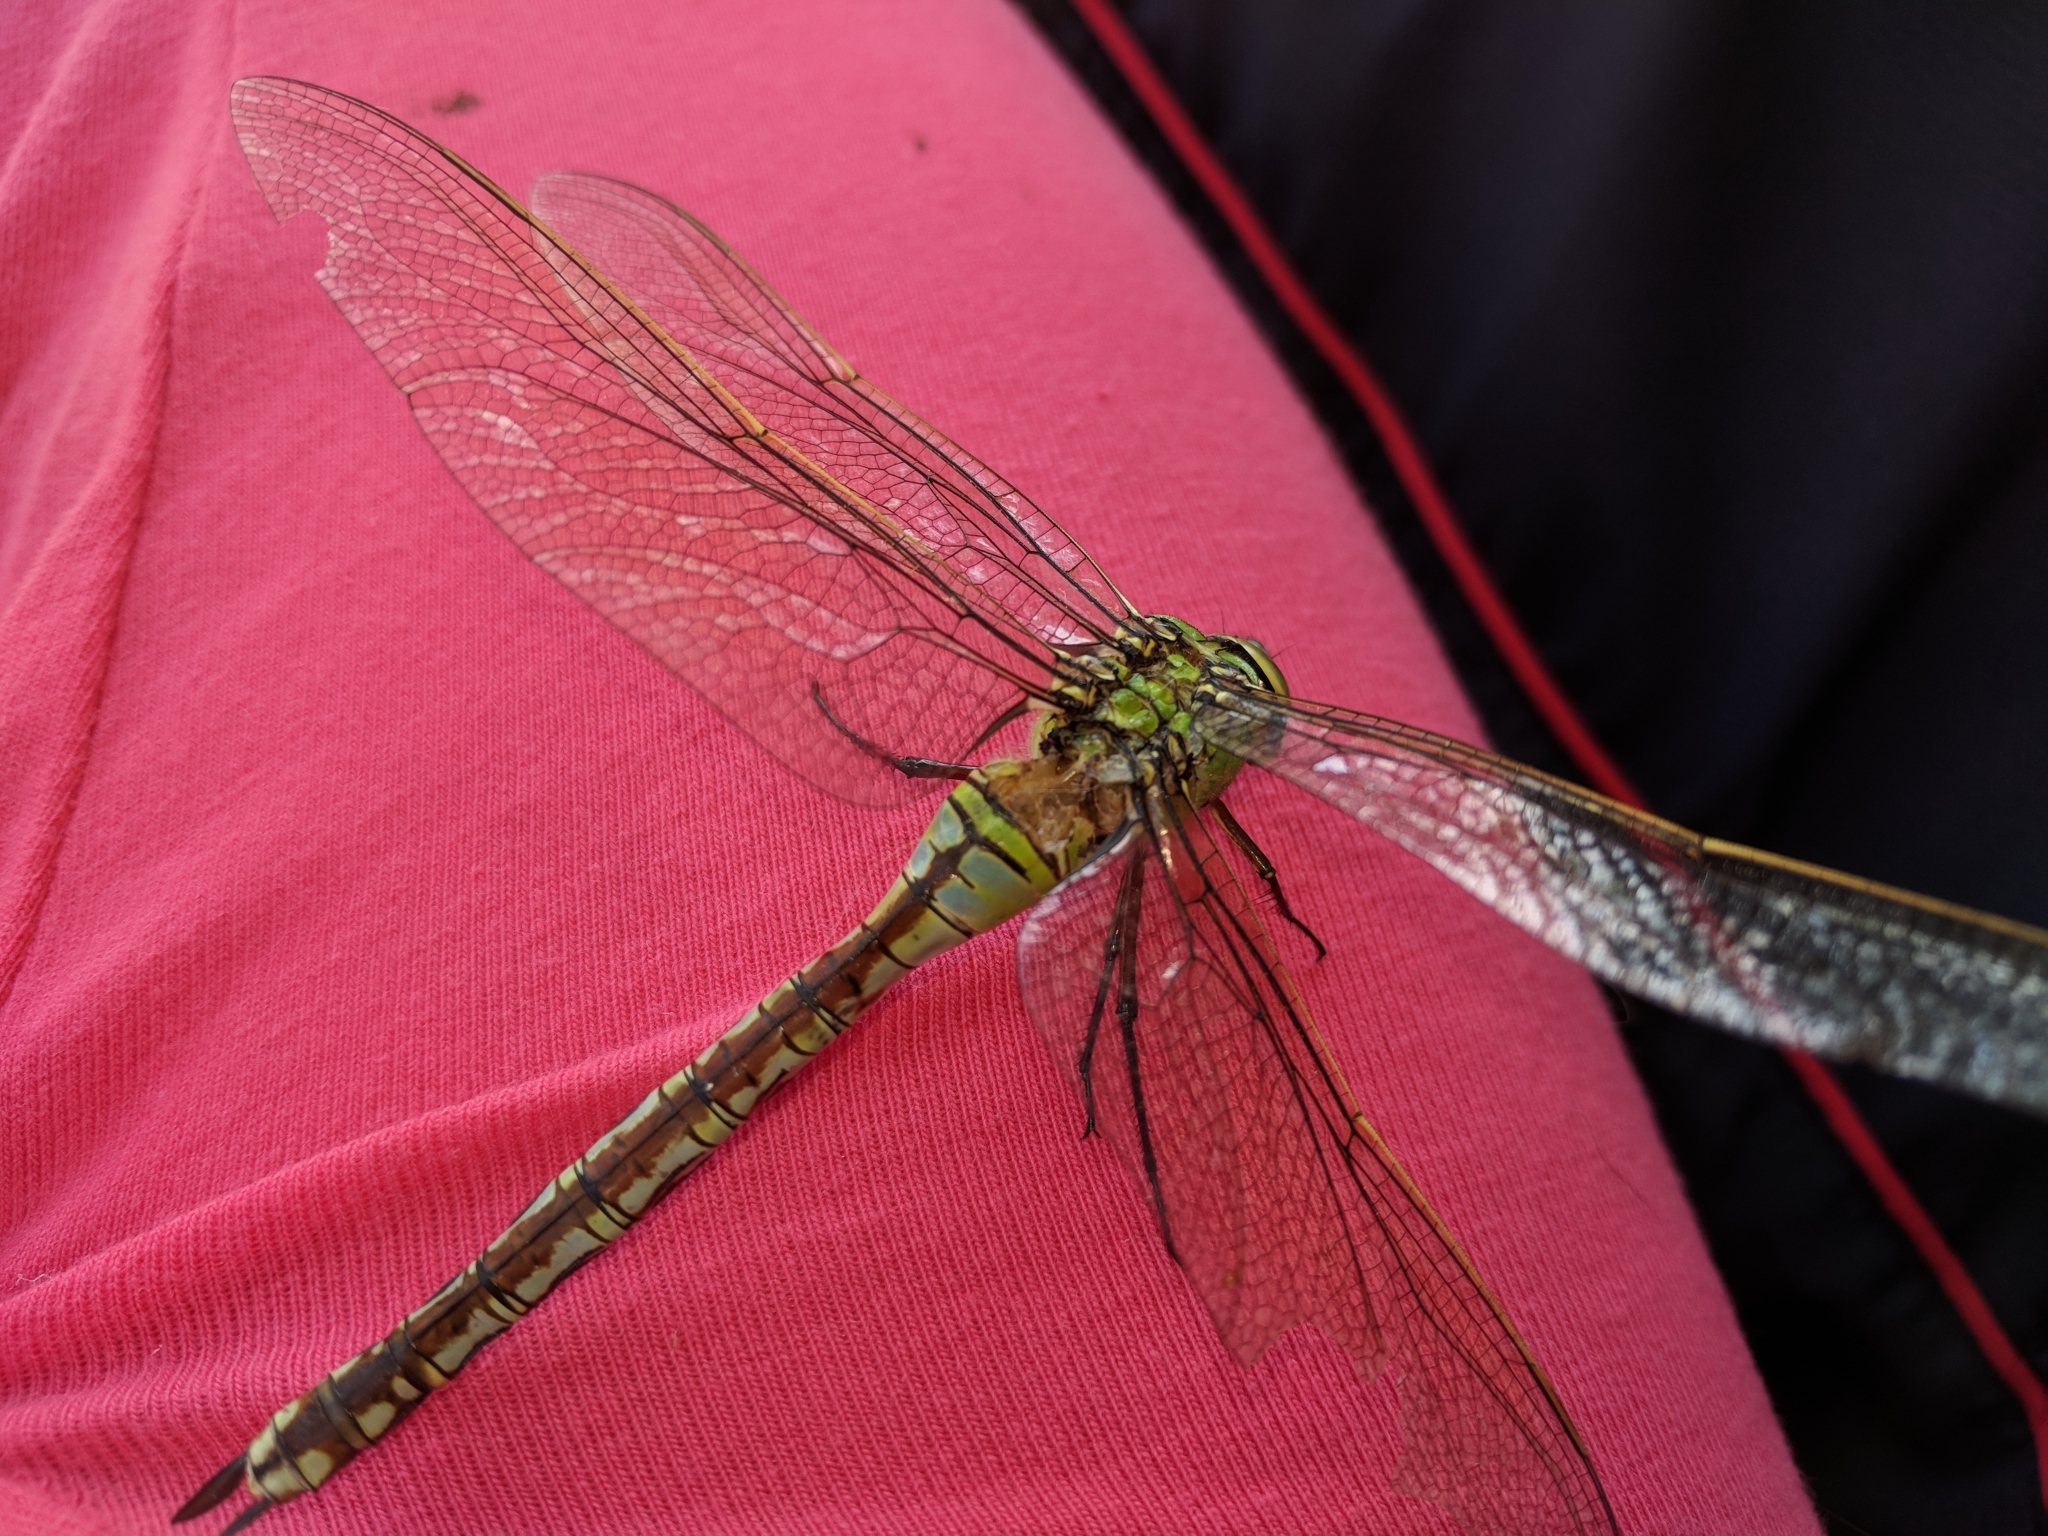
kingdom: Animalia
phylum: Arthropoda
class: Insecta
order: Odonata
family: Aeshnidae
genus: Anax
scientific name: Anax imperator
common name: Emperor dragonfly
